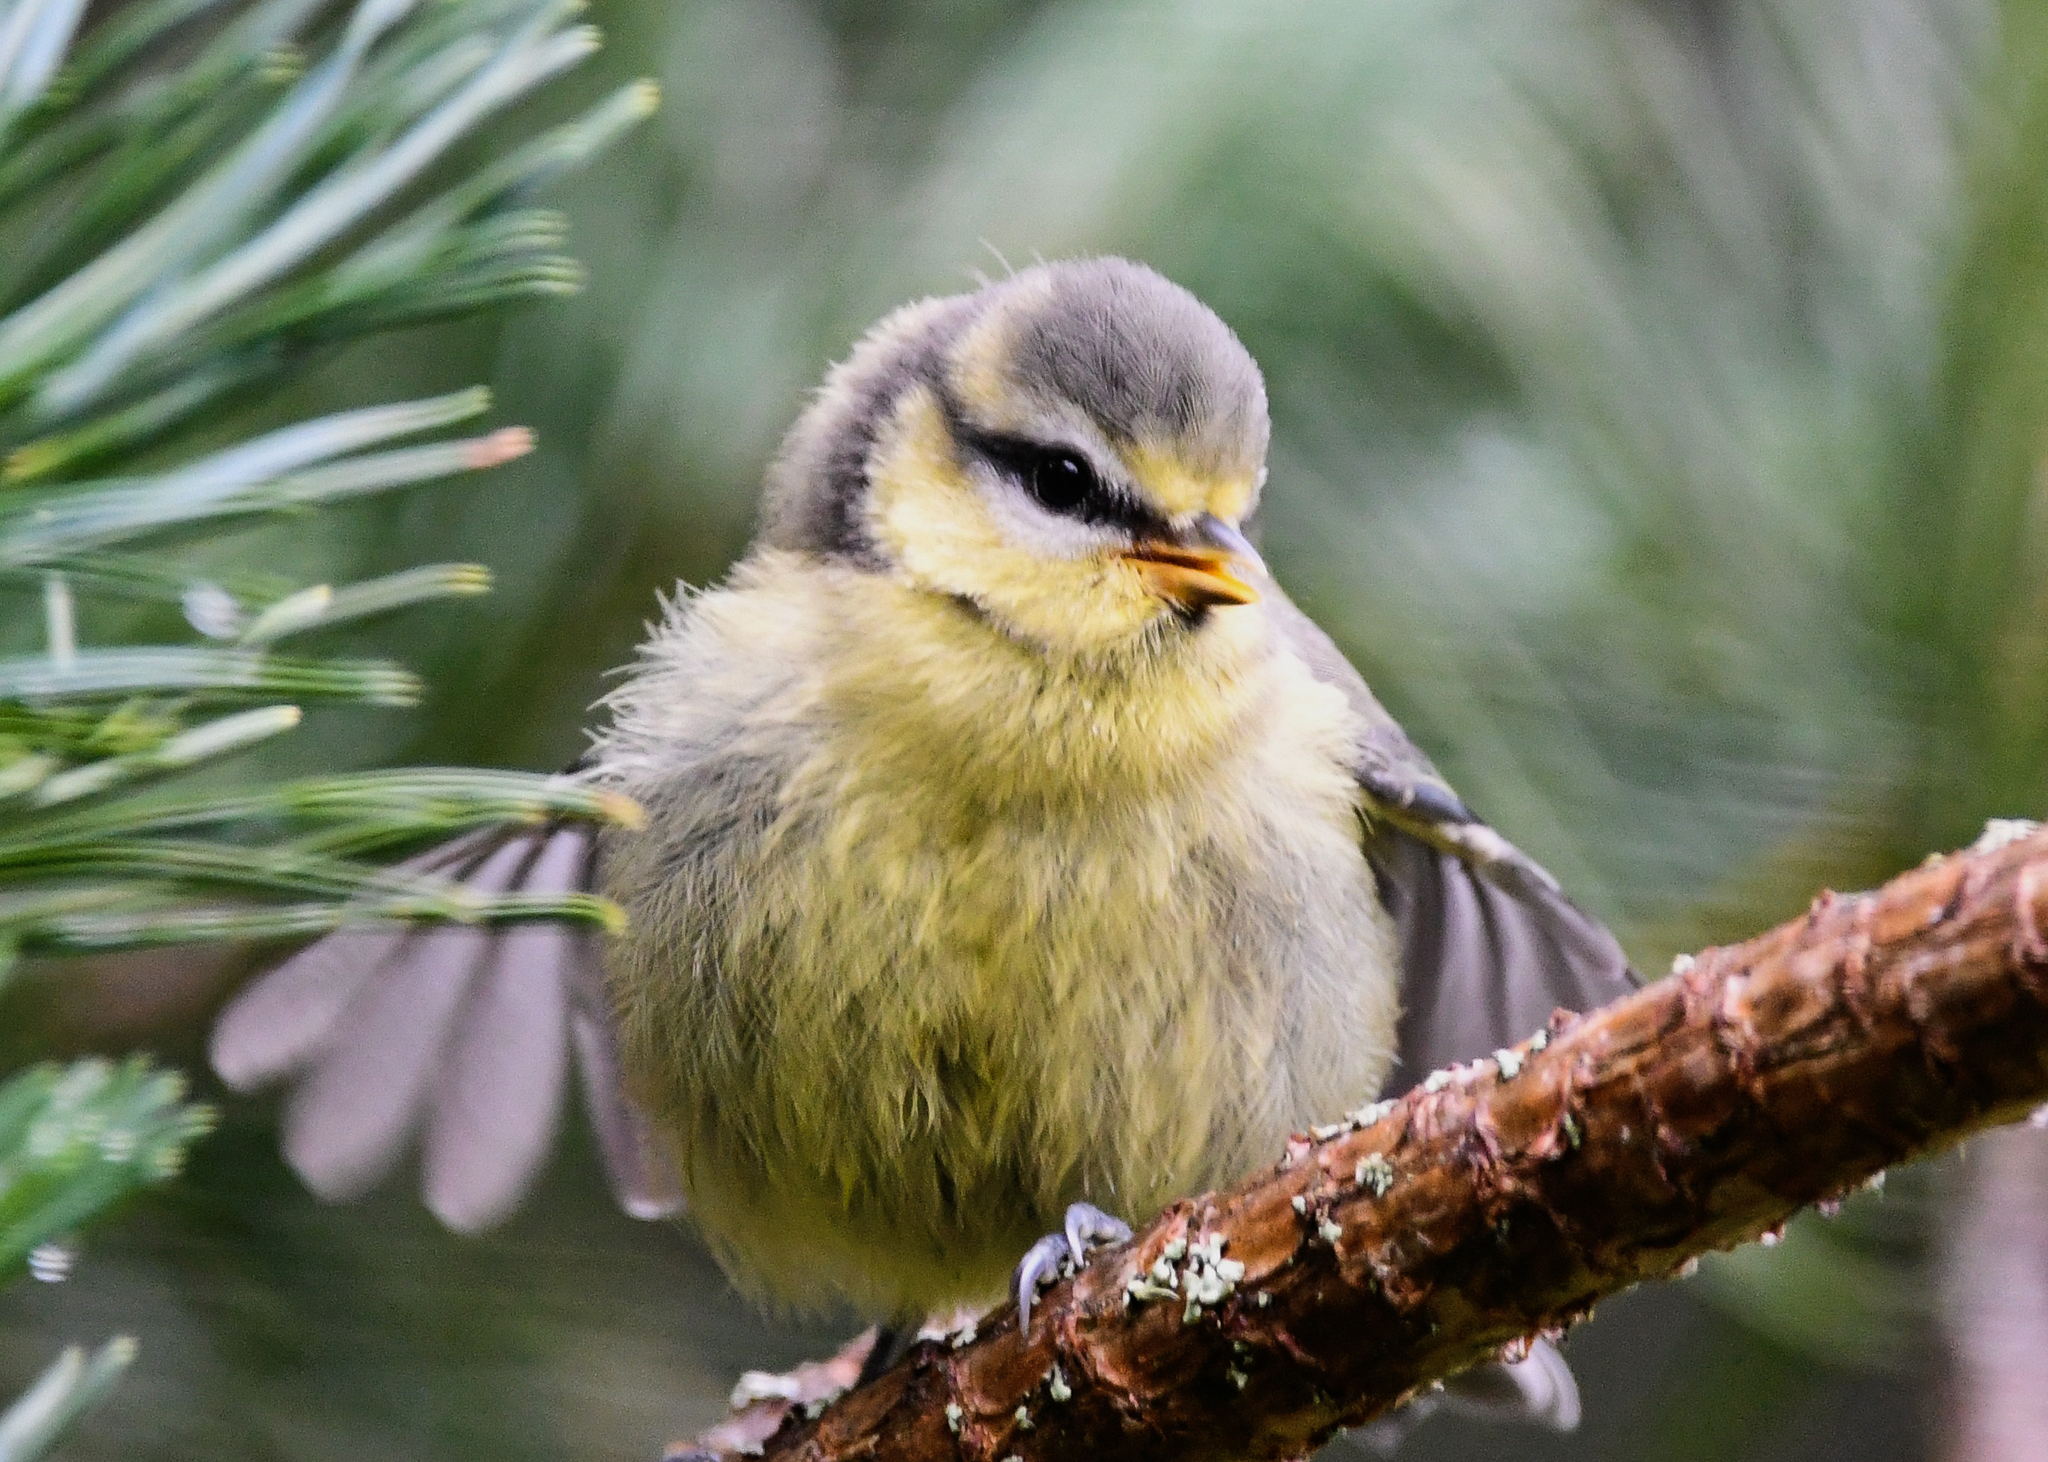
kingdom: Animalia
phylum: Chordata
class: Aves
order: Passeriformes
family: Paridae
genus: Cyanistes
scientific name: Cyanistes caeruleus
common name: Eurasian blue tit
